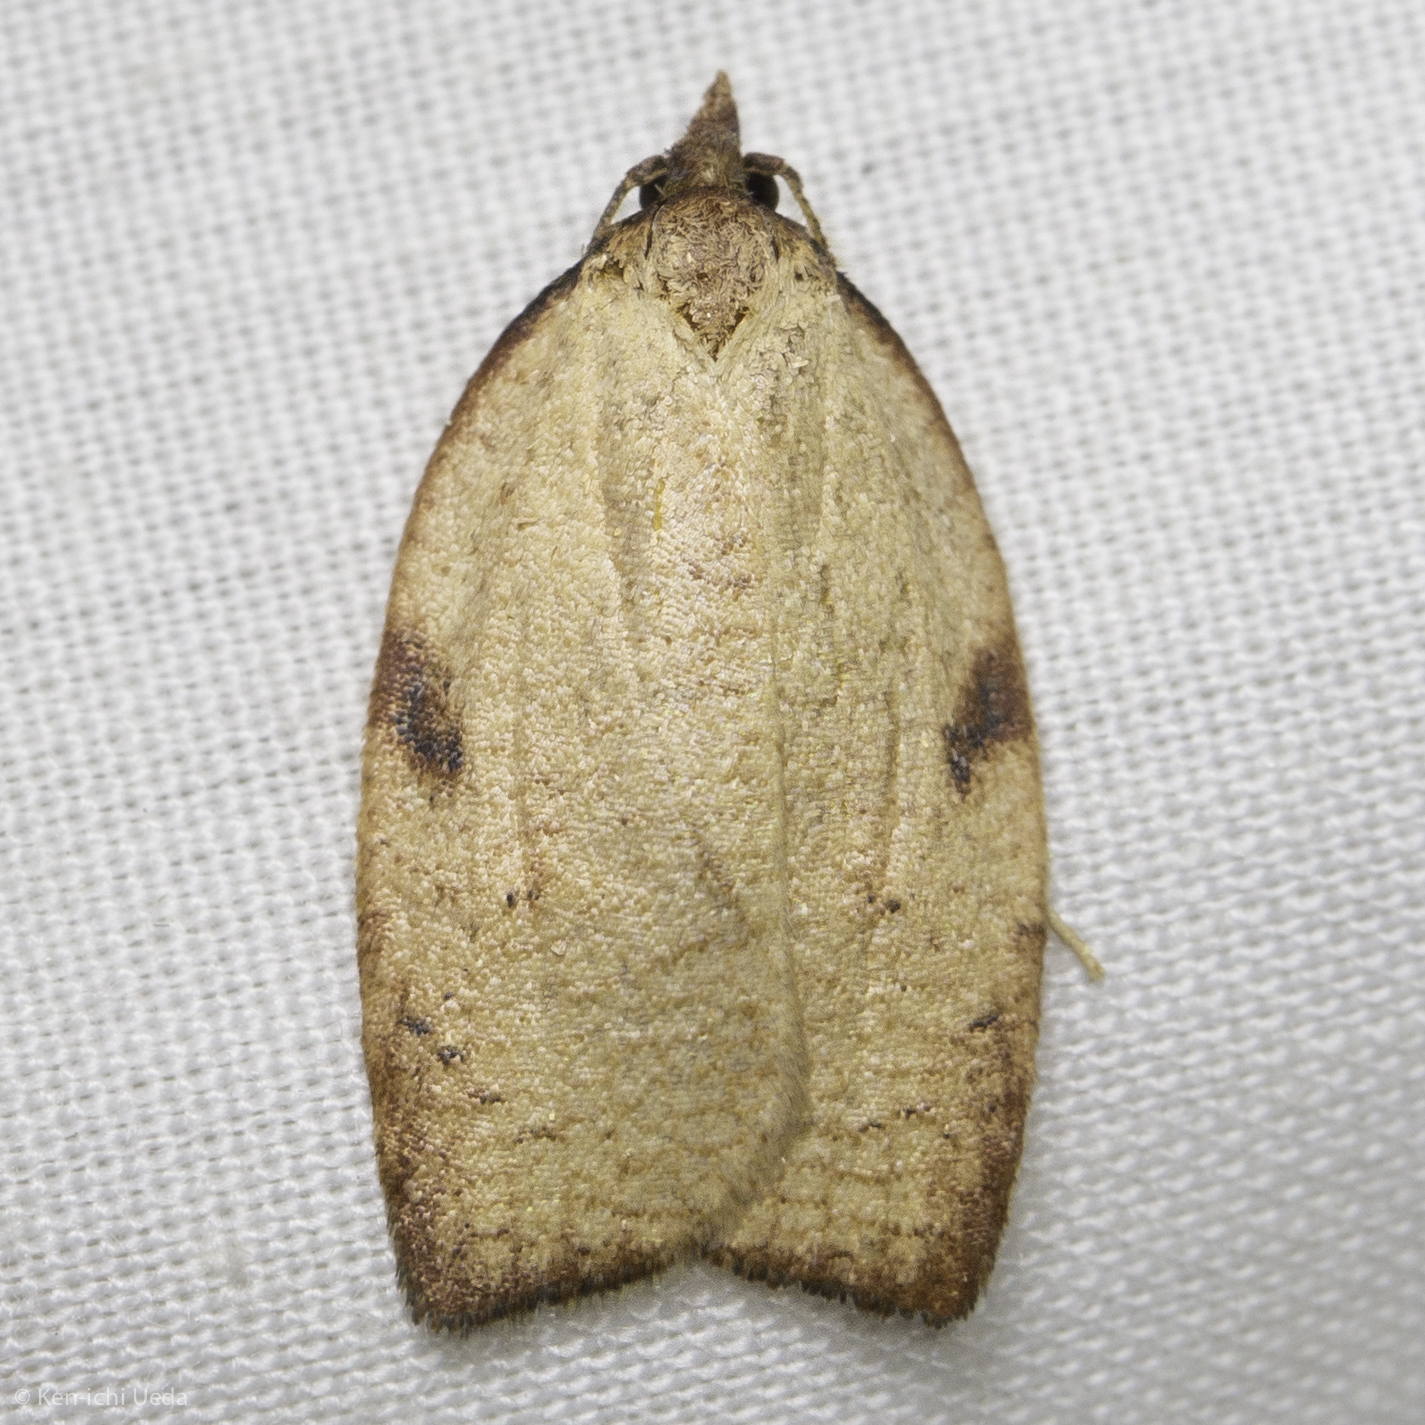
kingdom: Animalia
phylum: Arthropoda
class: Insecta
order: Lepidoptera
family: Tortricidae
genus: Amorbia
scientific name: Amorbia cuneanum
